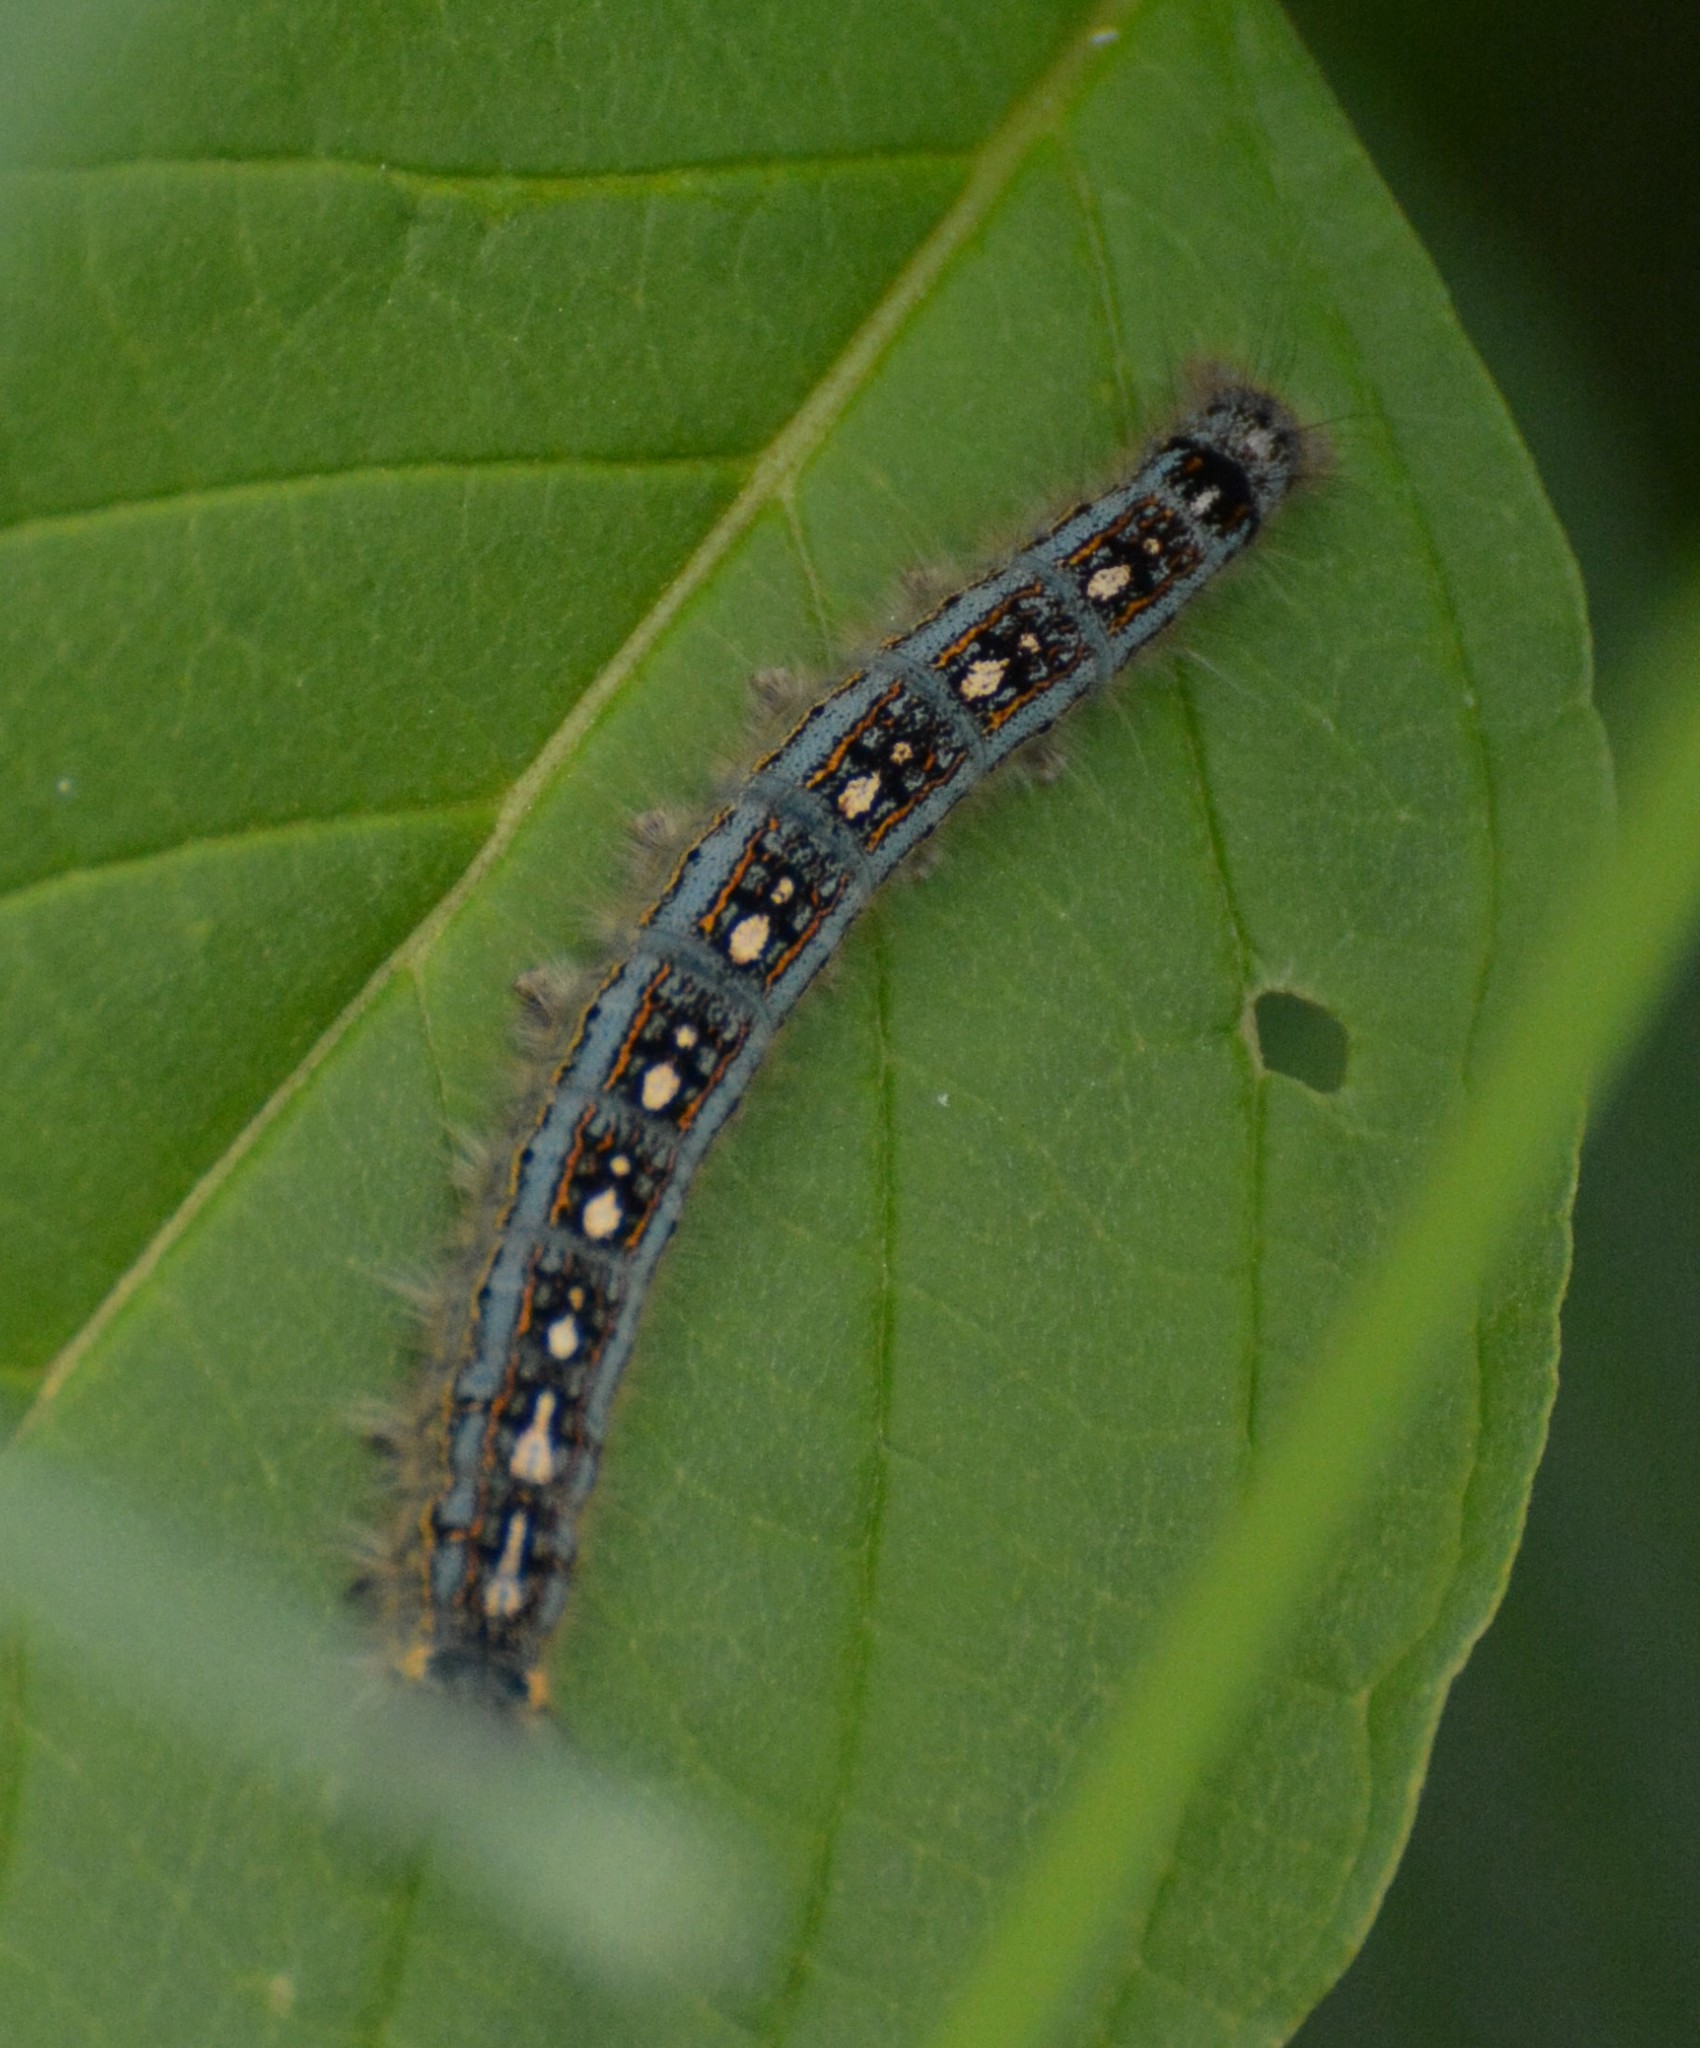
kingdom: Animalia
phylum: Arthropoda
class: Insecta
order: Lepidoptera
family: Lasiocampidae
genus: Malacosoma
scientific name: Malacosoma disstria
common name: Forest tent caterpillar
